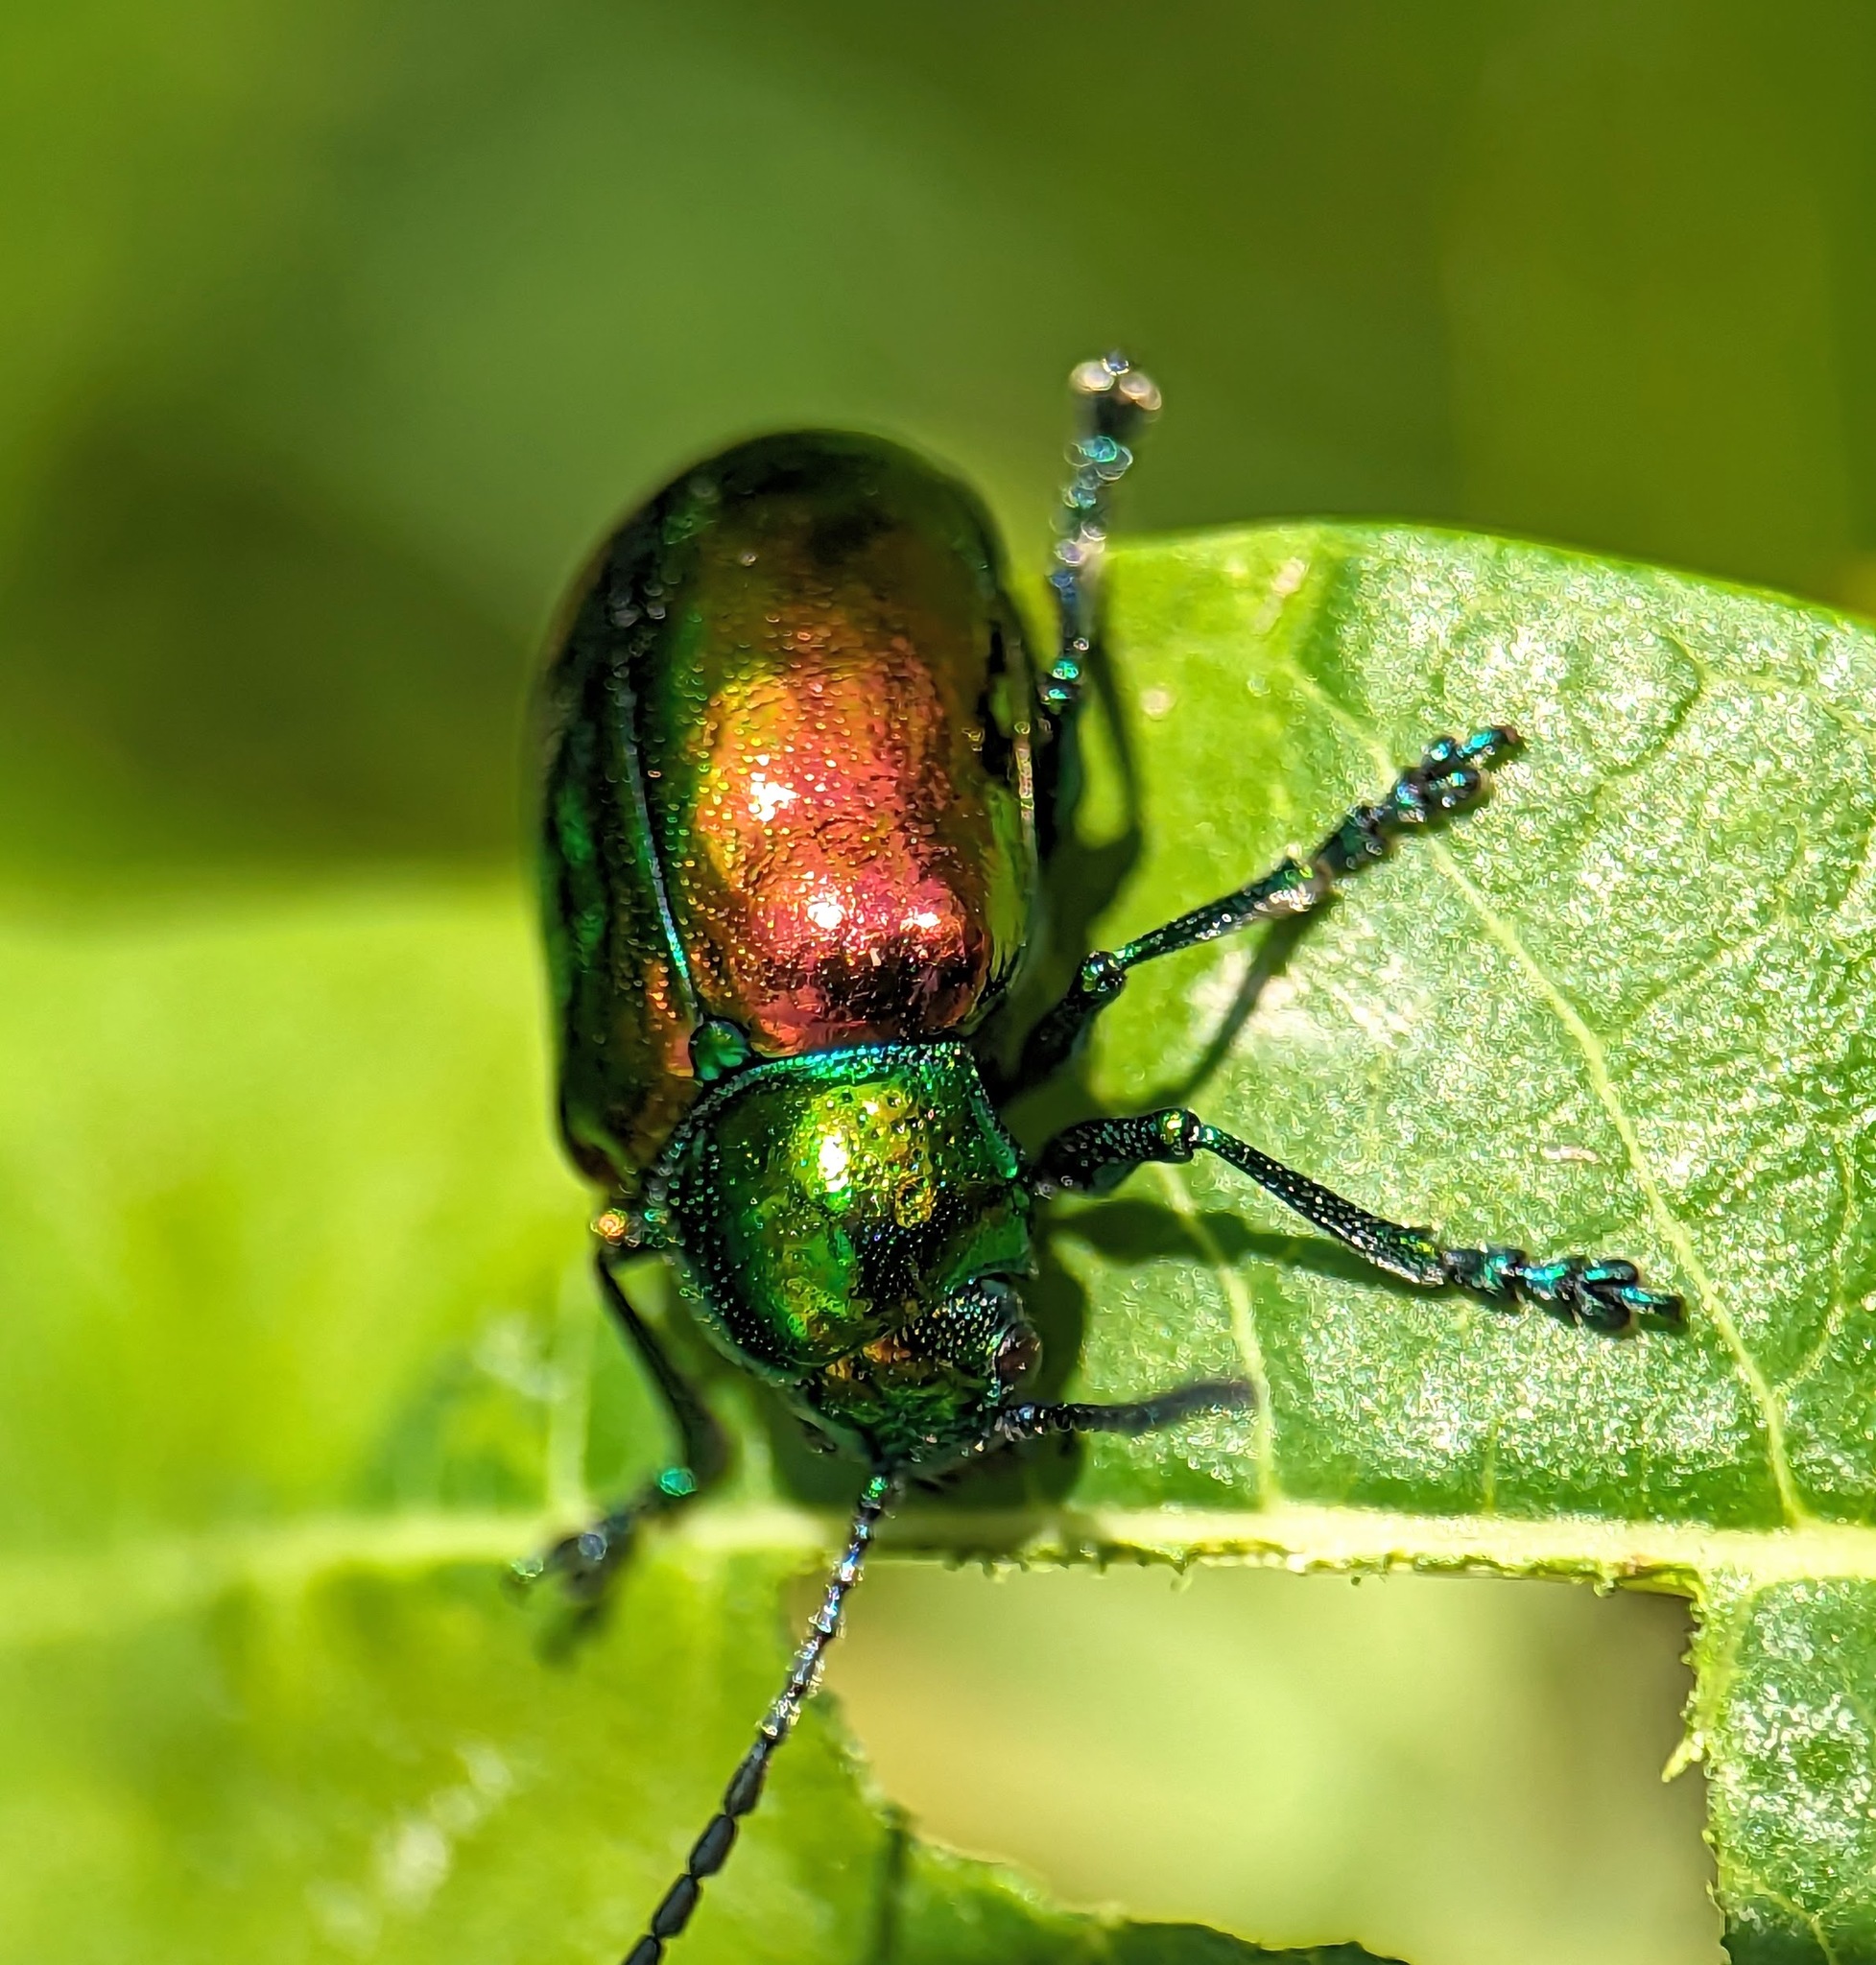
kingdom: Animalia
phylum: Arthropoda
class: Insecta
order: Coleoptera
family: Chrysomelidae
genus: Chrysochus
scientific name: Chrysochus auratus
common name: Dogbane leaf beetle
